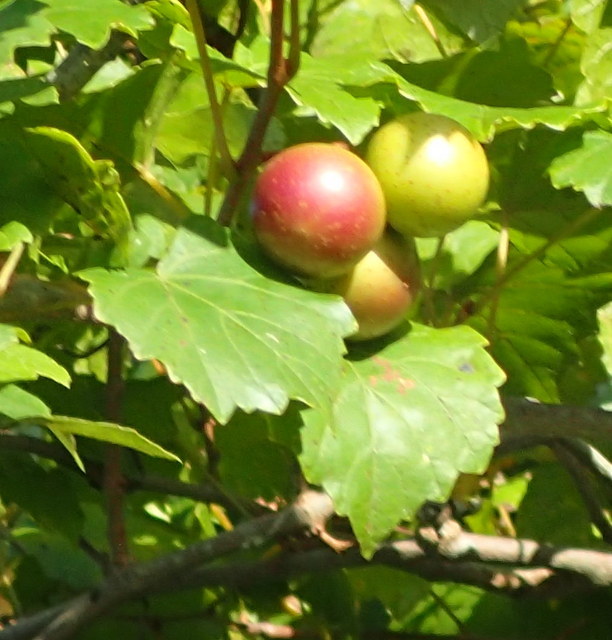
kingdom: Plantae
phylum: Tracheophyta
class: Magnoliopsida
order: Vitales
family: Vitaceae
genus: Vitis
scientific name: Vitis rotundifolia
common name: Muscadine grape
